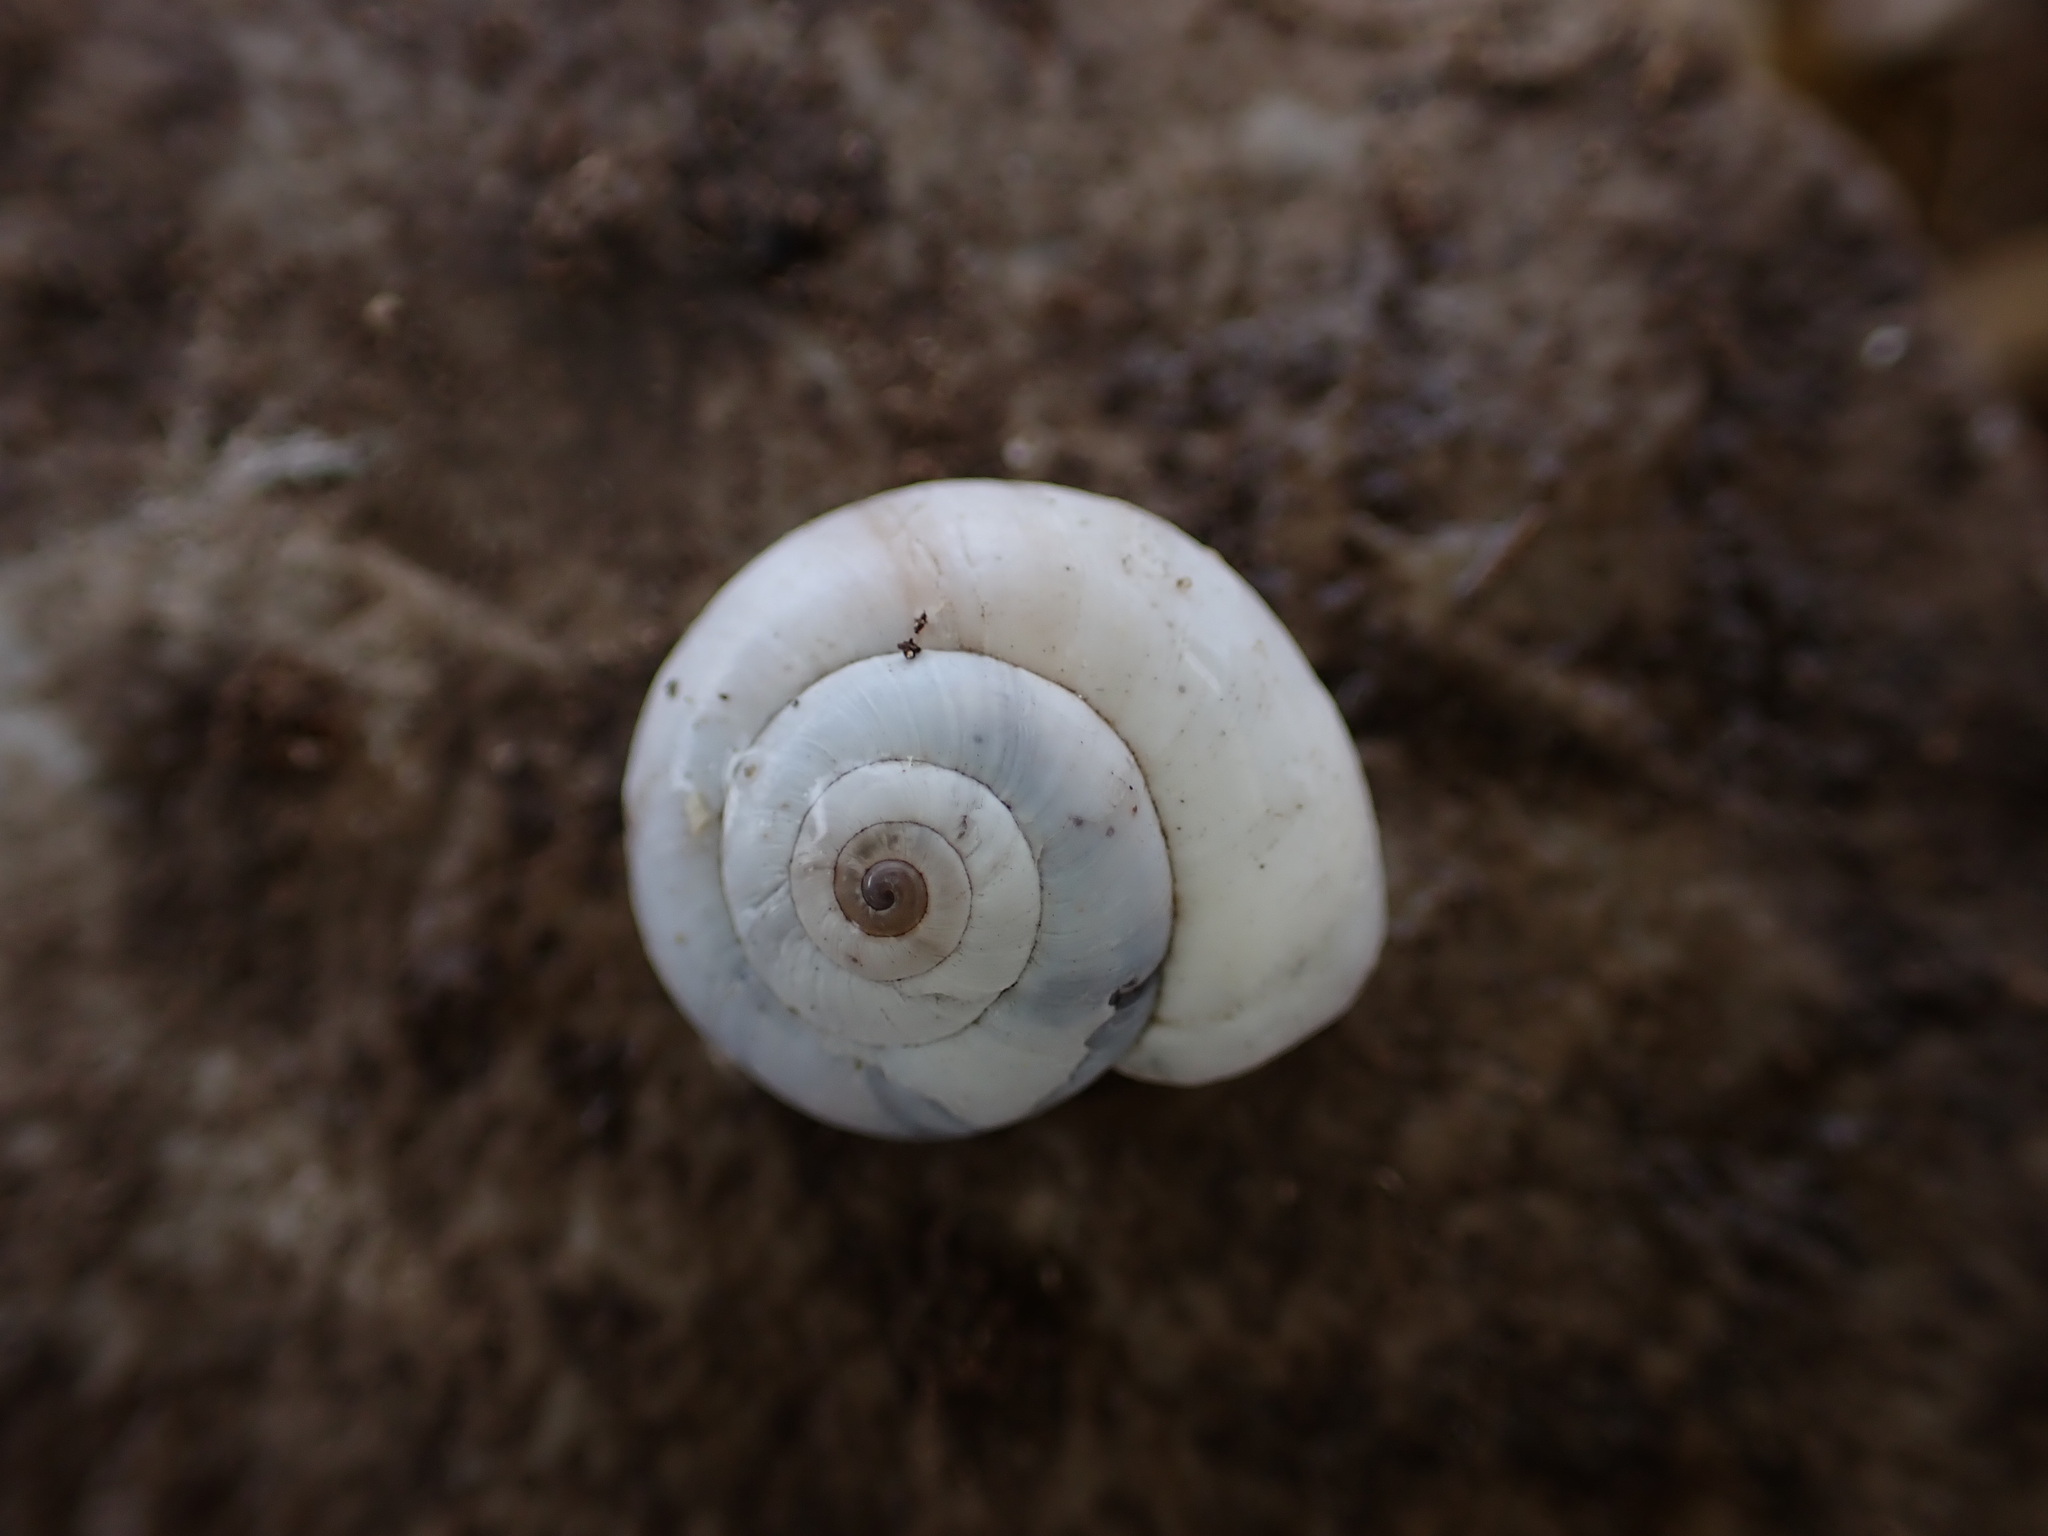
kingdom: Animalia
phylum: Mollusca
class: Gastropoda
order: Stylommatophora
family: Geomitridae
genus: Xeropicta
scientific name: Xeropicta derbentina
